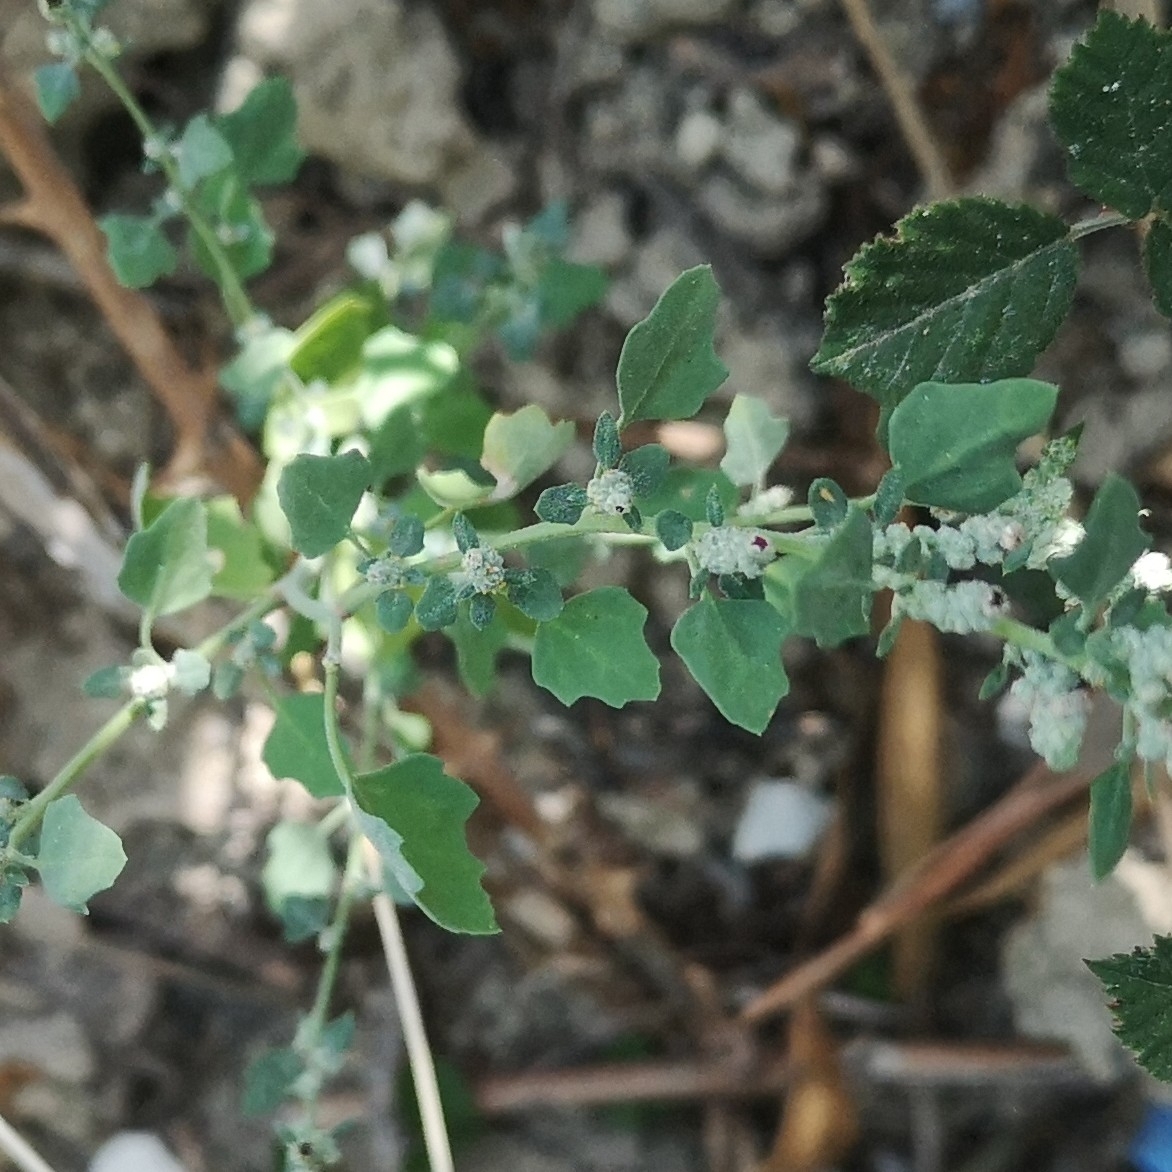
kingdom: Plantae
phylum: Tracheophyta
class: Magnoliopsida
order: Caryophyllales
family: Amaranthaceae
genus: Chenopodium
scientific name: Chenopodium opulifolium
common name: Grey goosefoot
